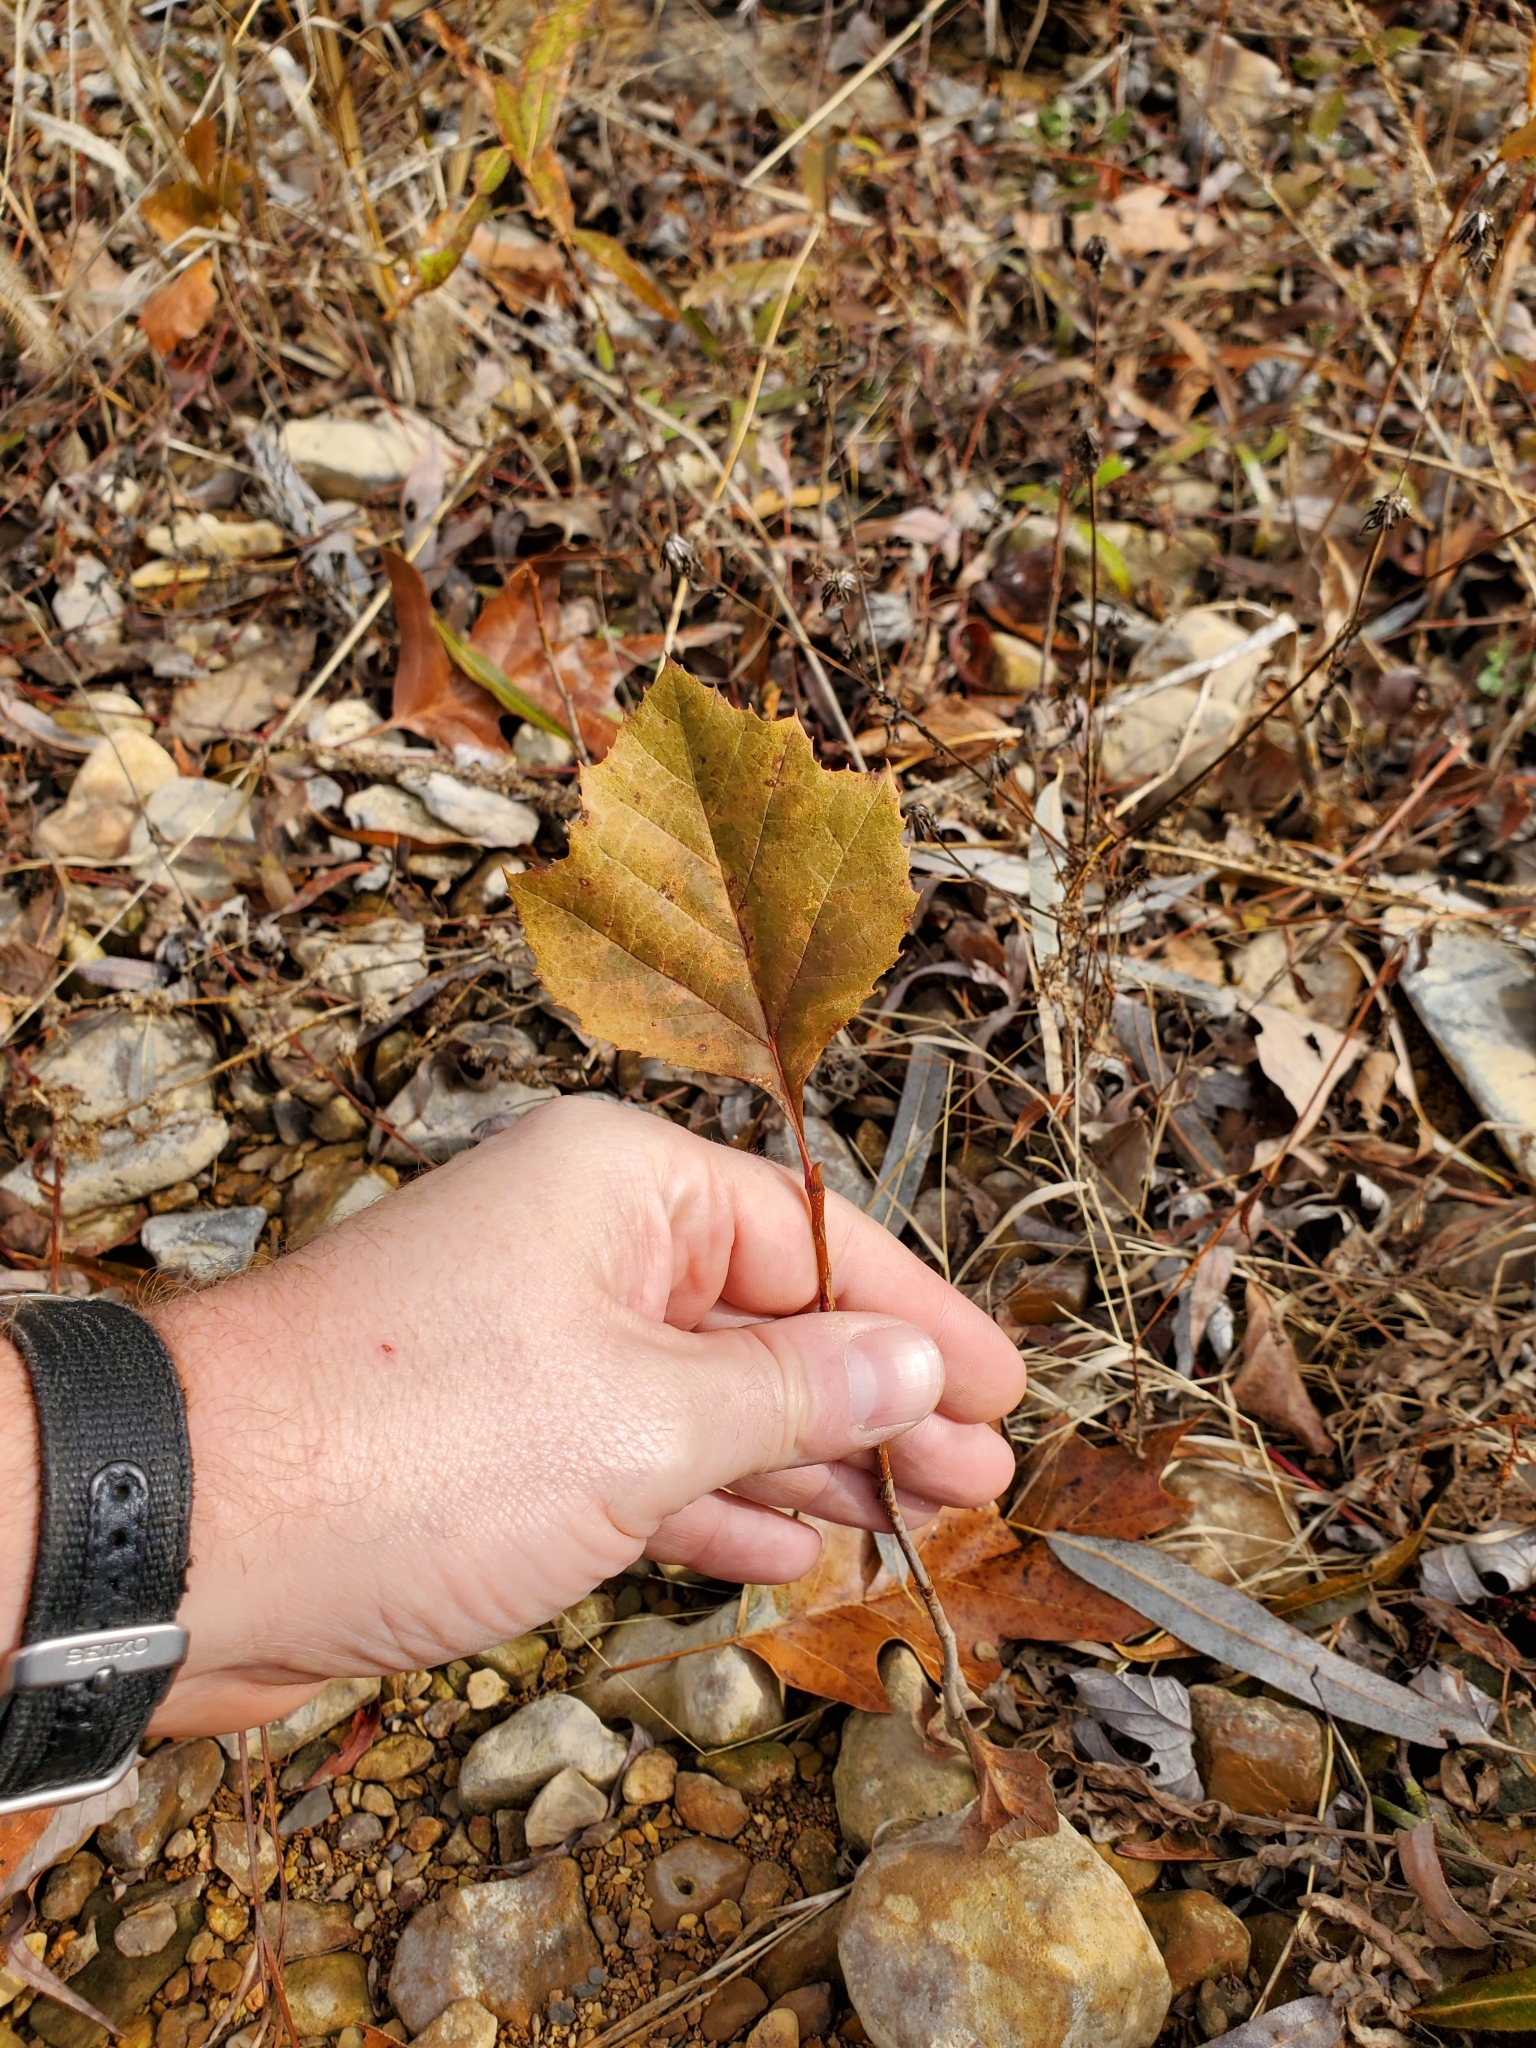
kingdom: Plantae
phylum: Tracheophyta
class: Magnoliopsida
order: Proteales
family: Platanaceae
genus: Platanus
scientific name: Platanus occidentalis
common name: American sycamore
